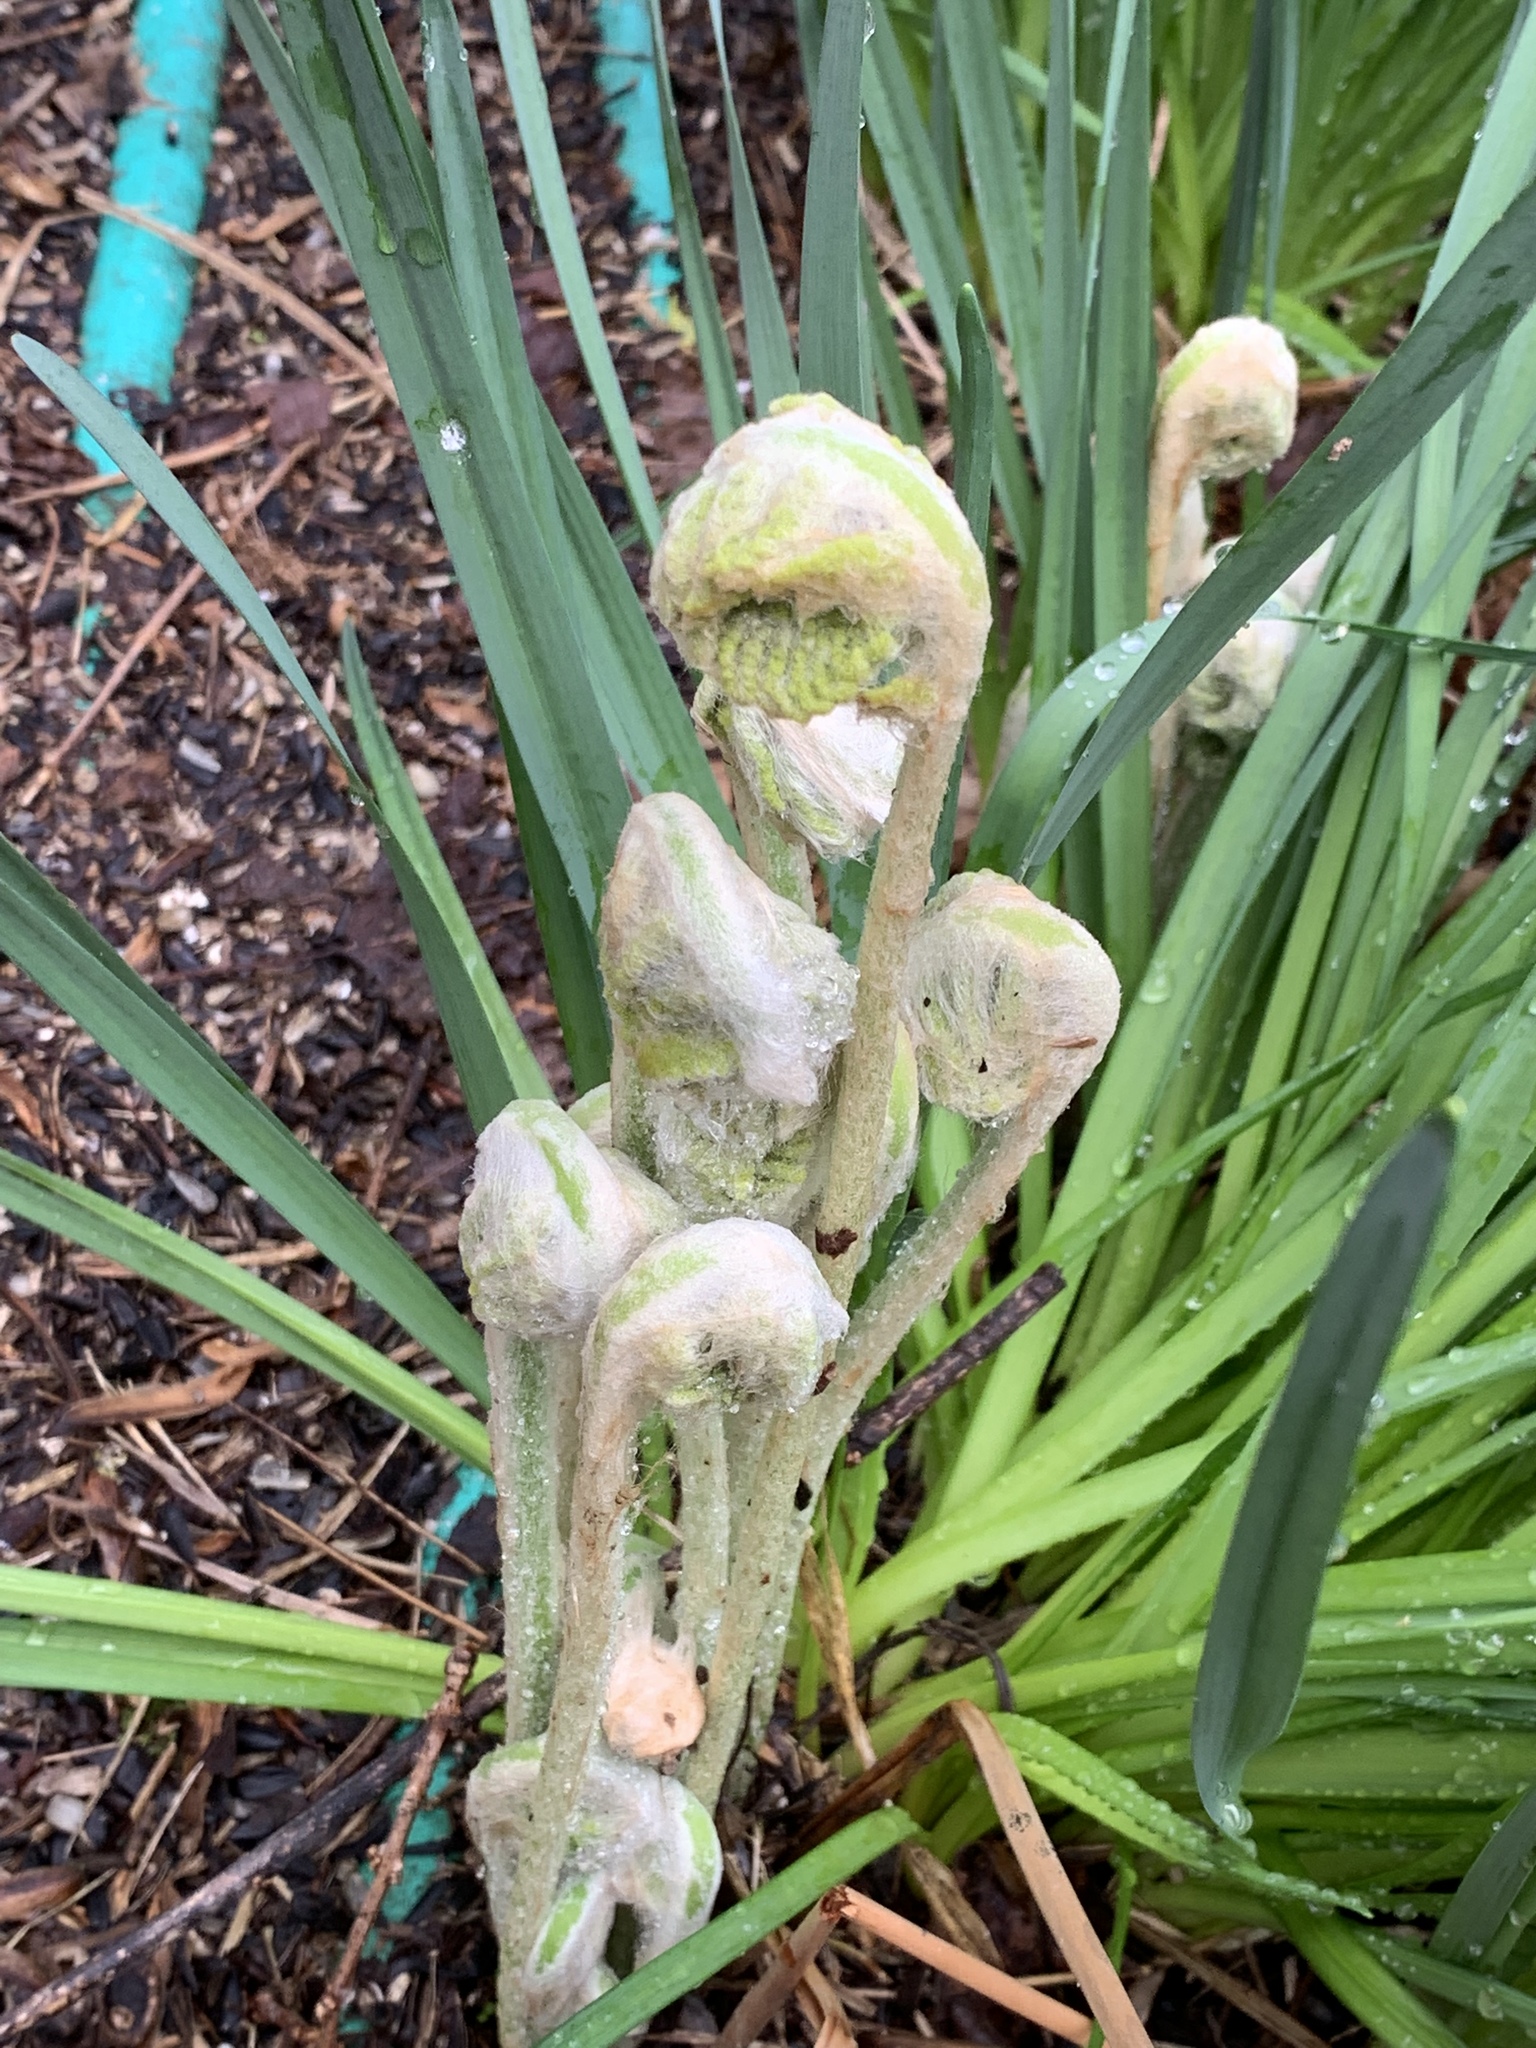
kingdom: Plantae
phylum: Tracheophyta
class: Polypodiopsida
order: Osmundales
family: Osmundaceae
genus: Osmundastrum
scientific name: Osmundastrum cinnamomeum
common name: Cinnamon fern
